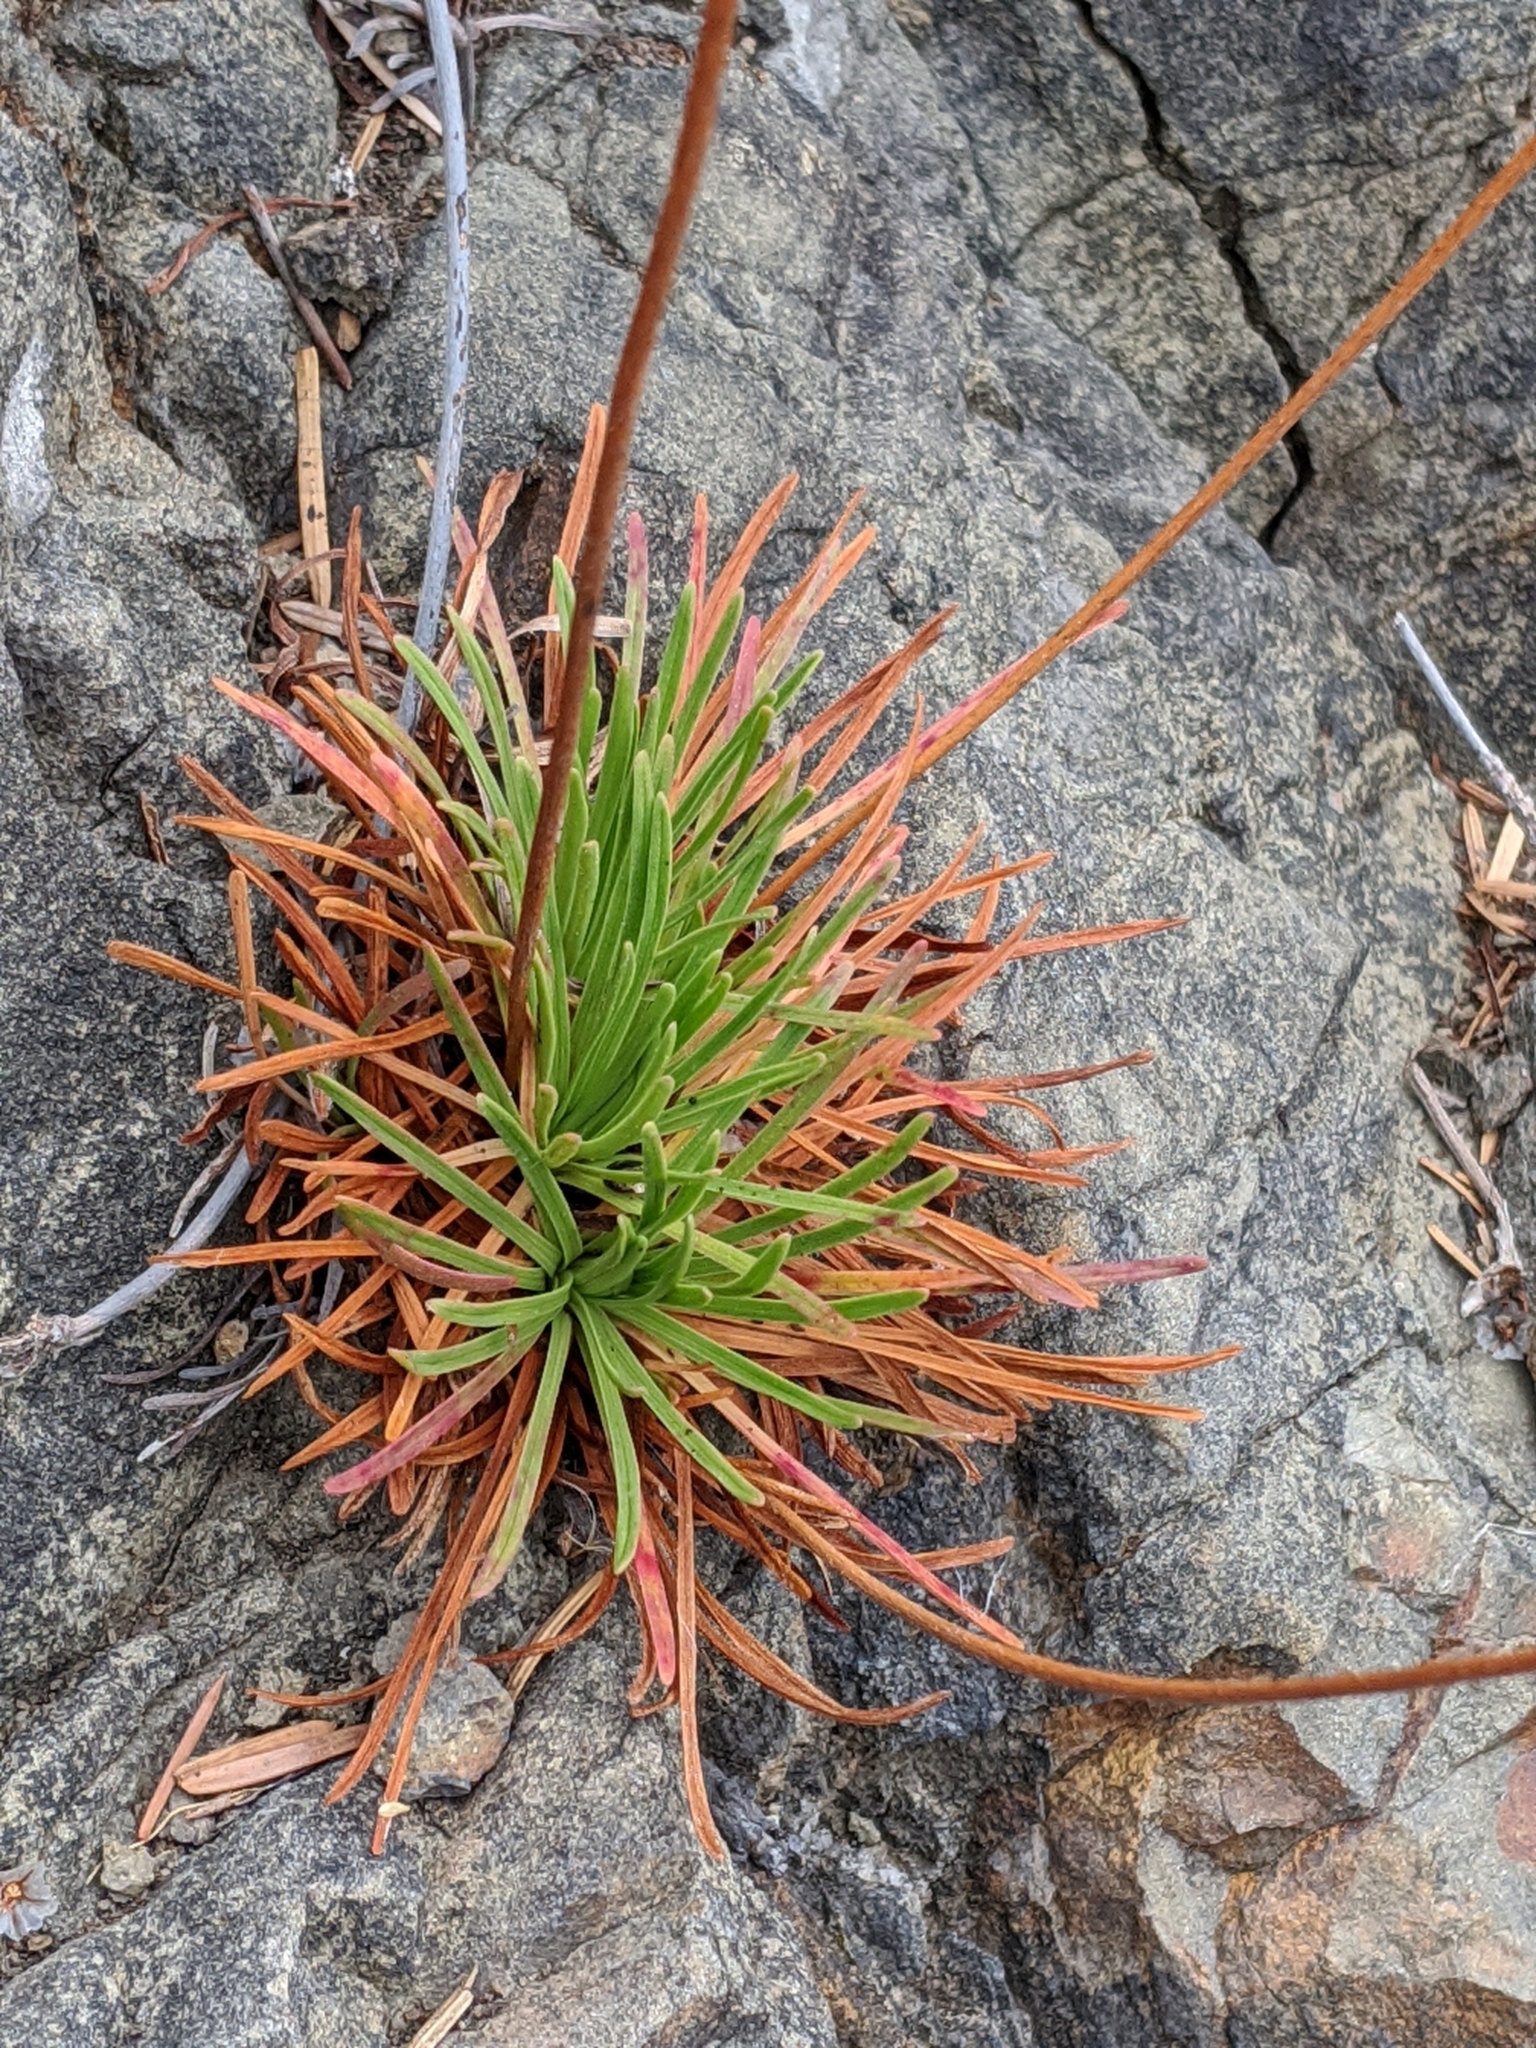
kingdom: Plantae
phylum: Tracheophyta
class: Magnoliopsida
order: Caryophyllales
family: Plumbaginaceae
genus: Armeria
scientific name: Armeria maritima
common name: Thrift
